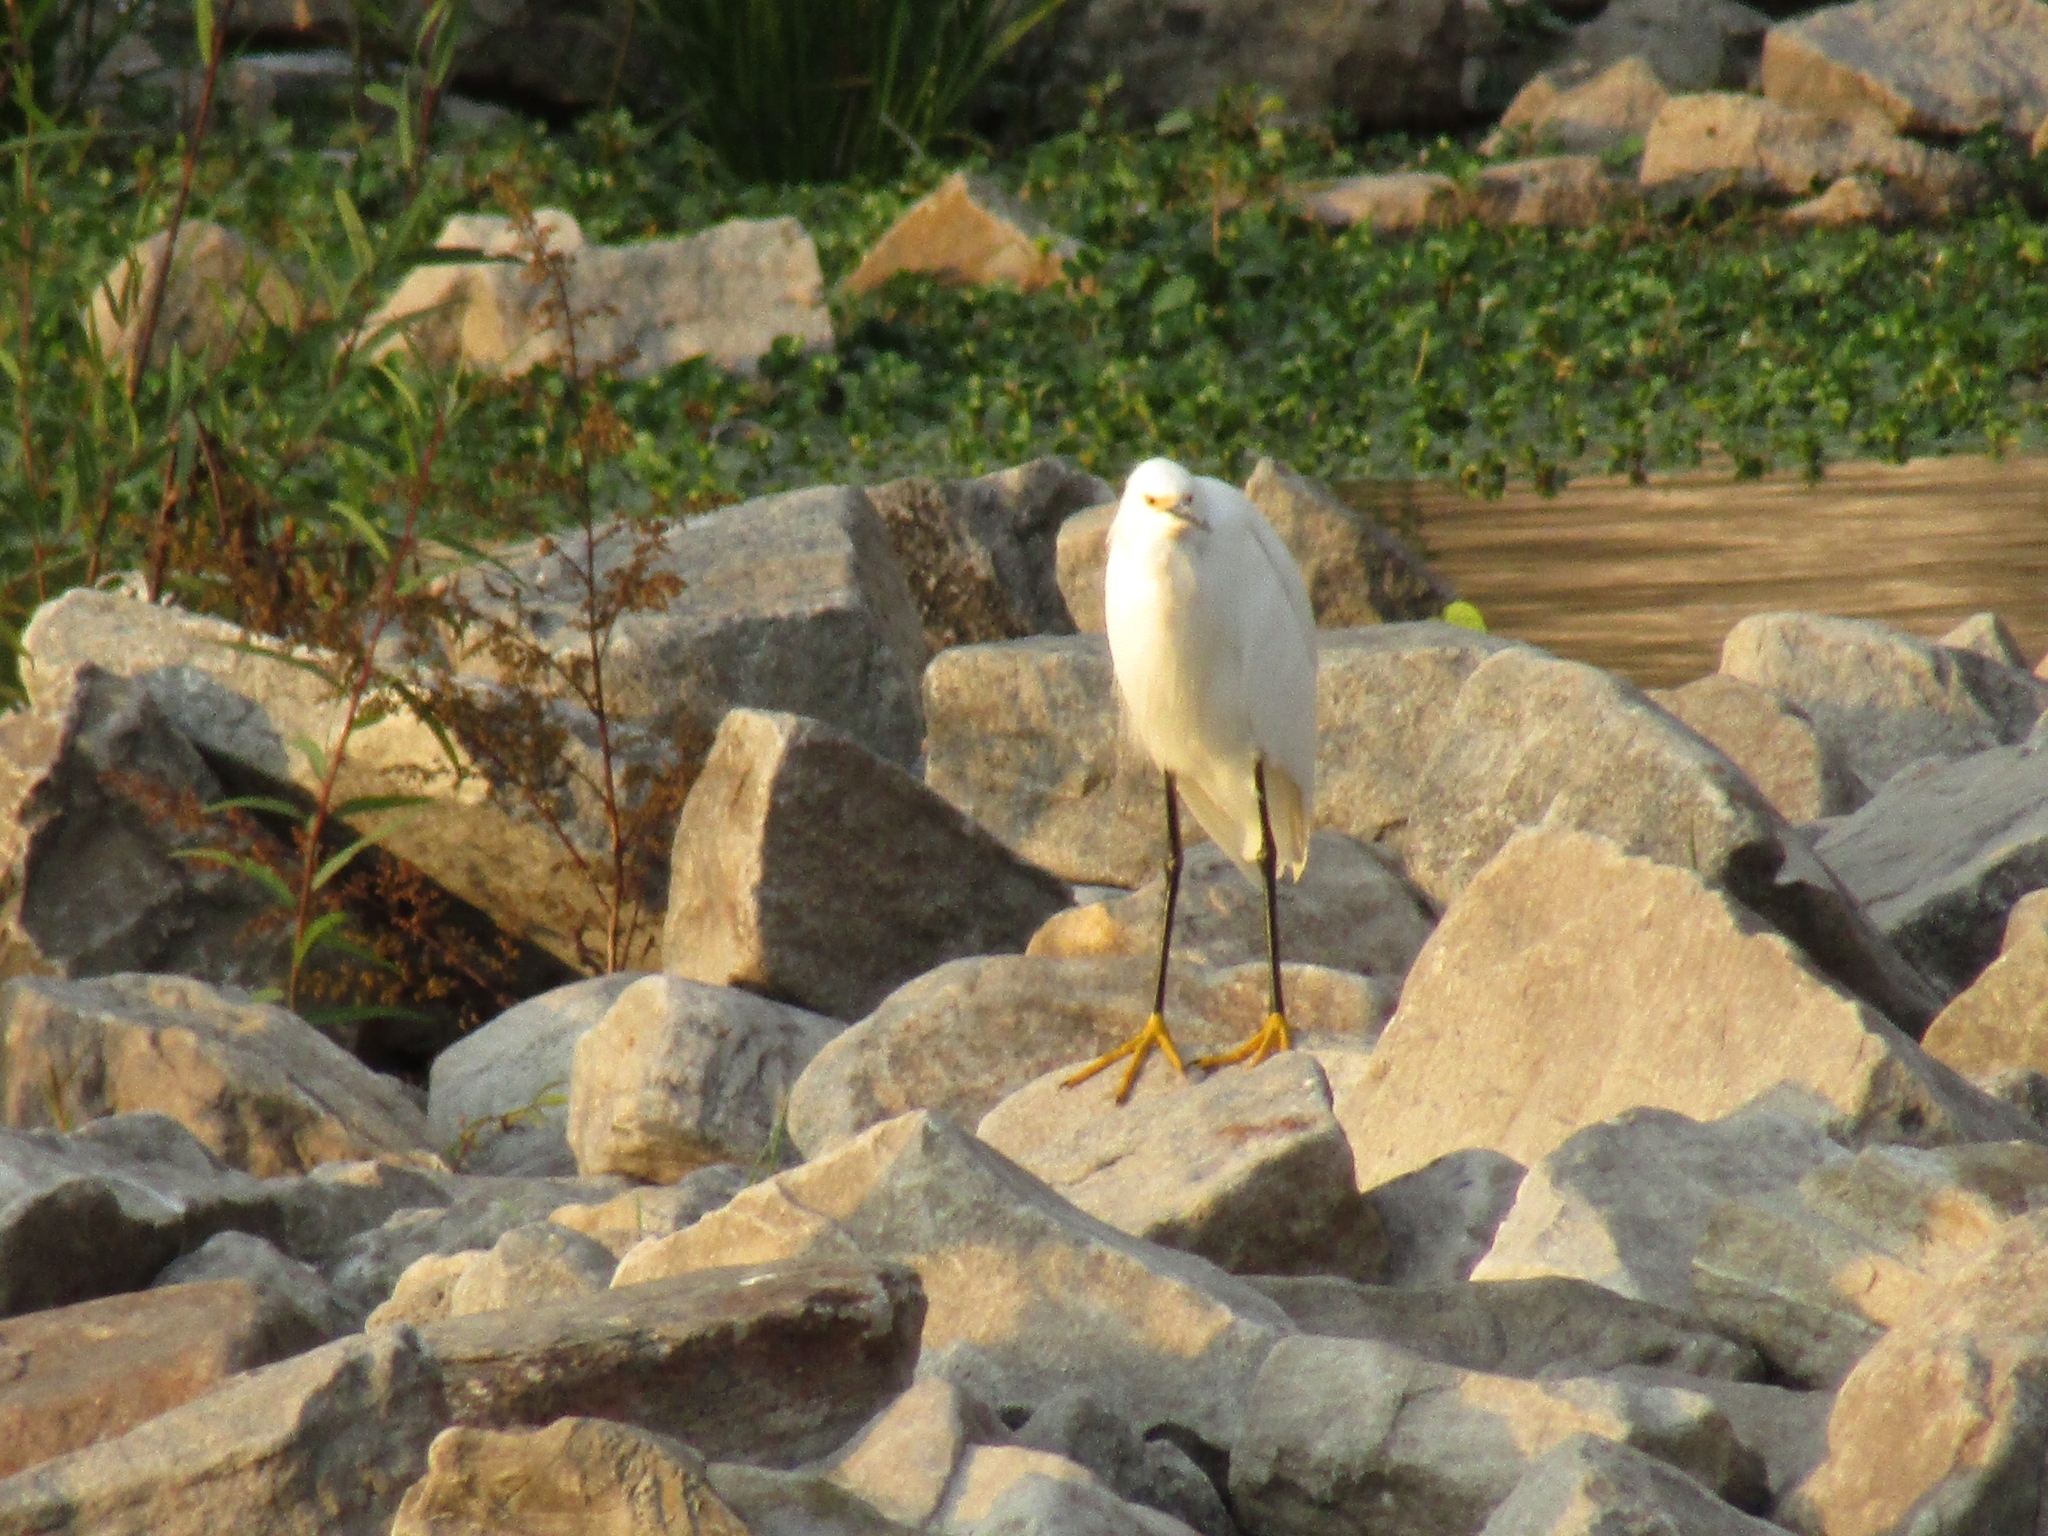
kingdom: Animalia
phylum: Chordata
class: Aves
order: Pelecaniformes
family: Ardeidae
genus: Egretta
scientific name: Egretta thula
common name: Snowy egret
